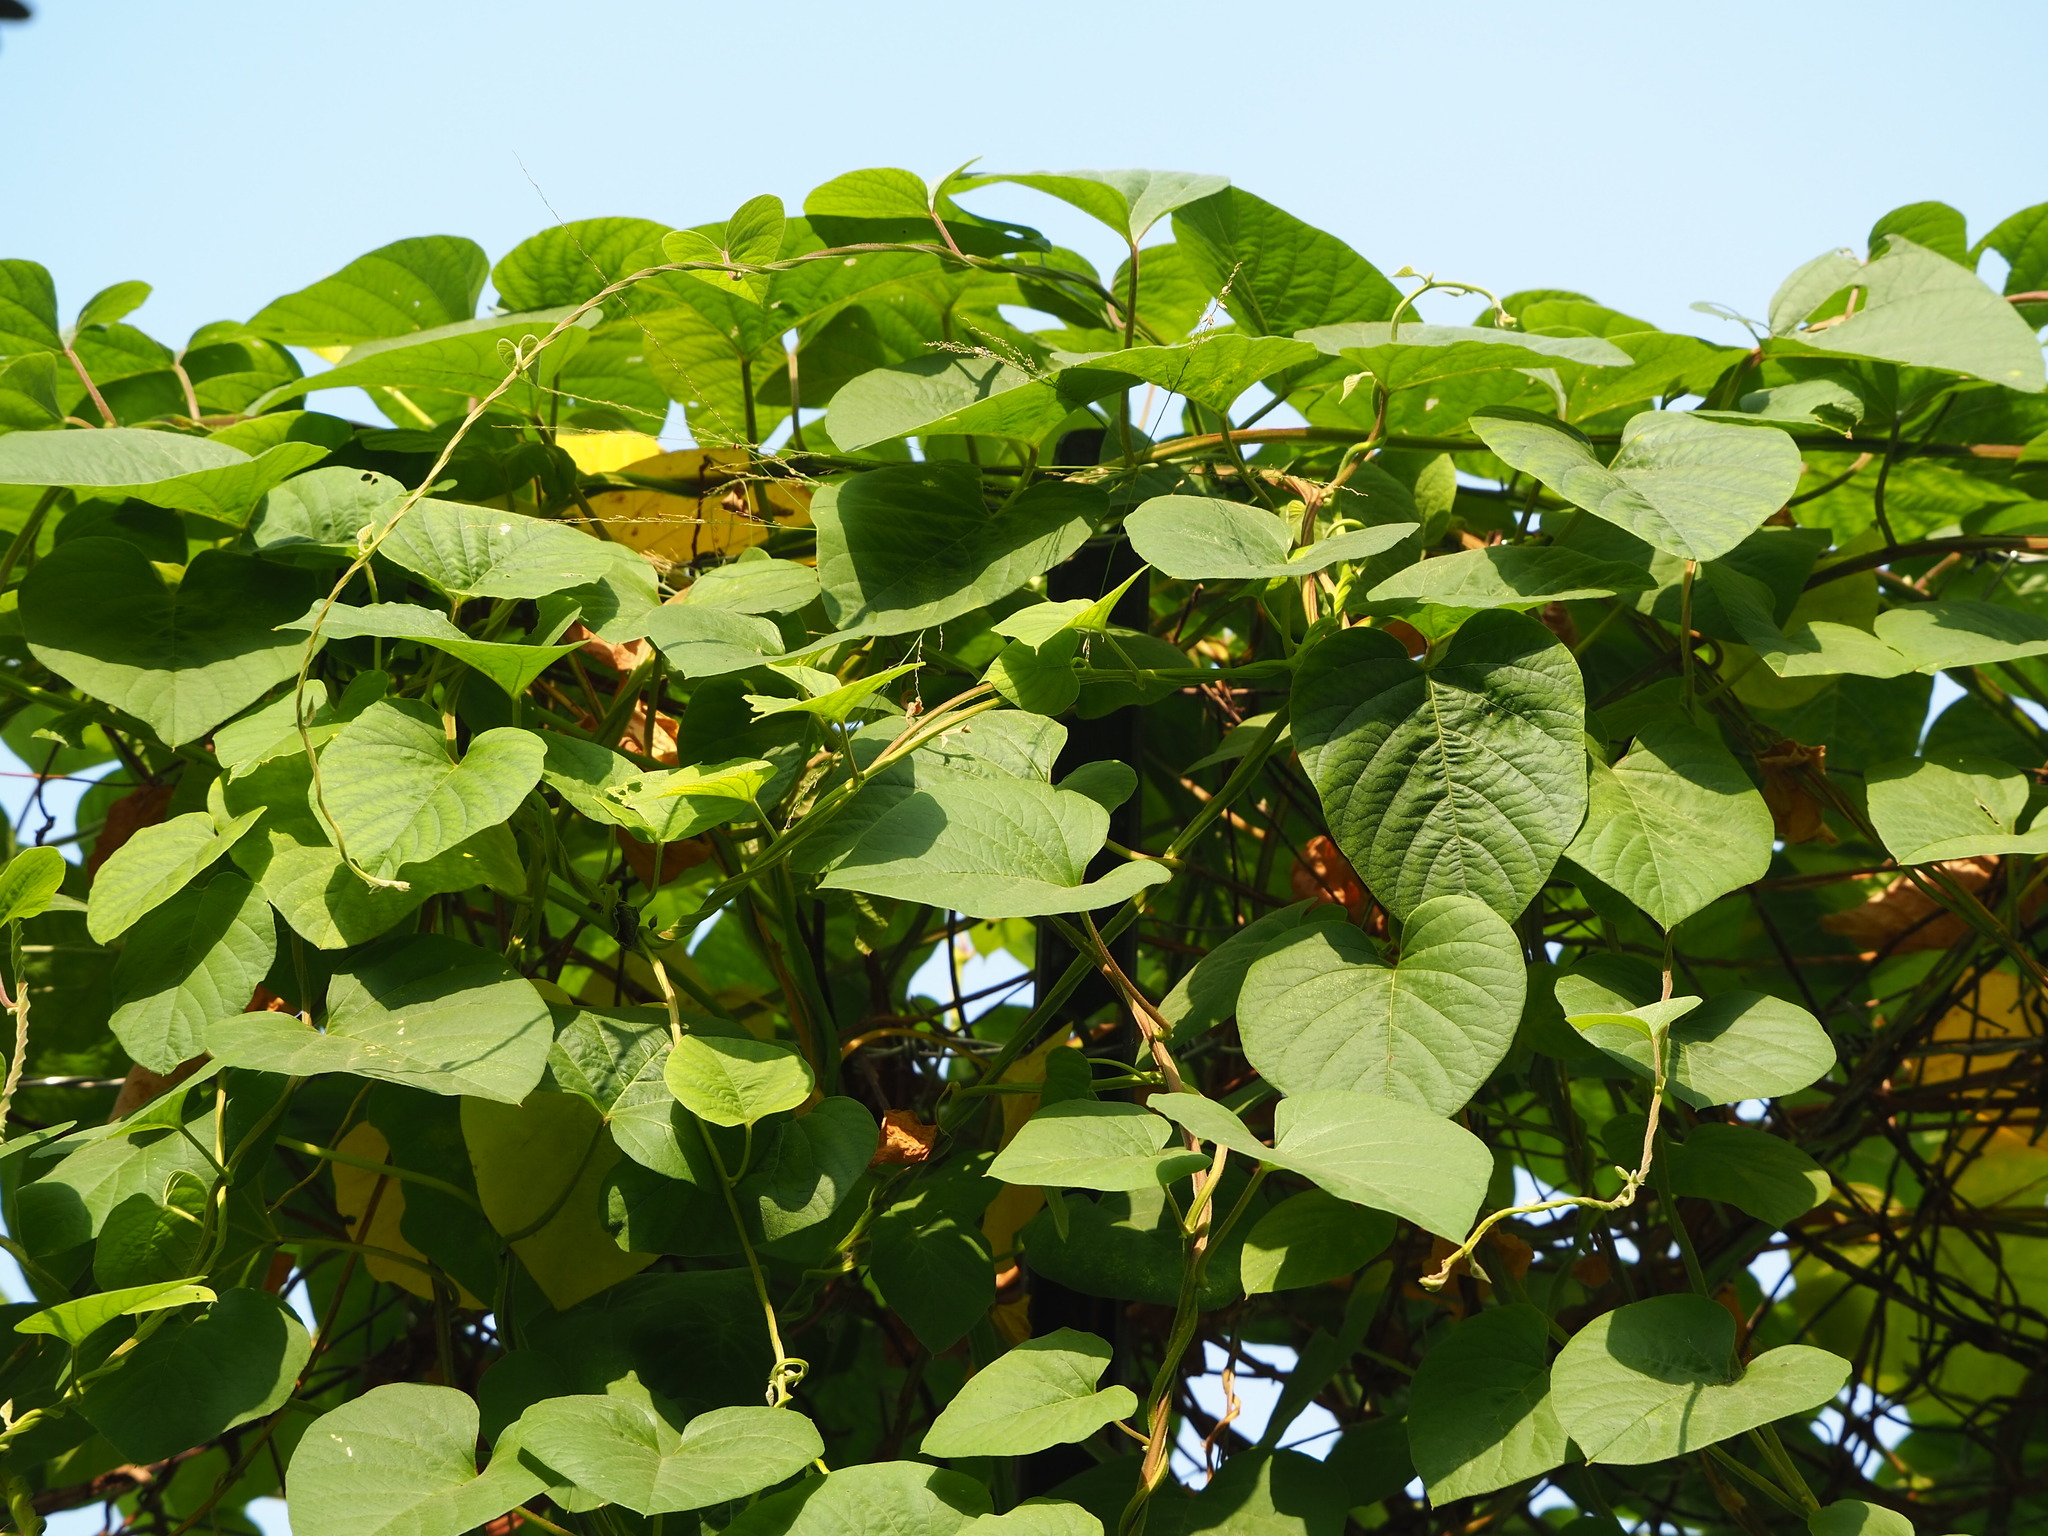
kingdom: Plantae
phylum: Tracheophyta
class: Magnoliopsida
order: Solanales
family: Convolvulaceae
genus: Operculina
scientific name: Operculina turpethum
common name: Transparent wood-rose
